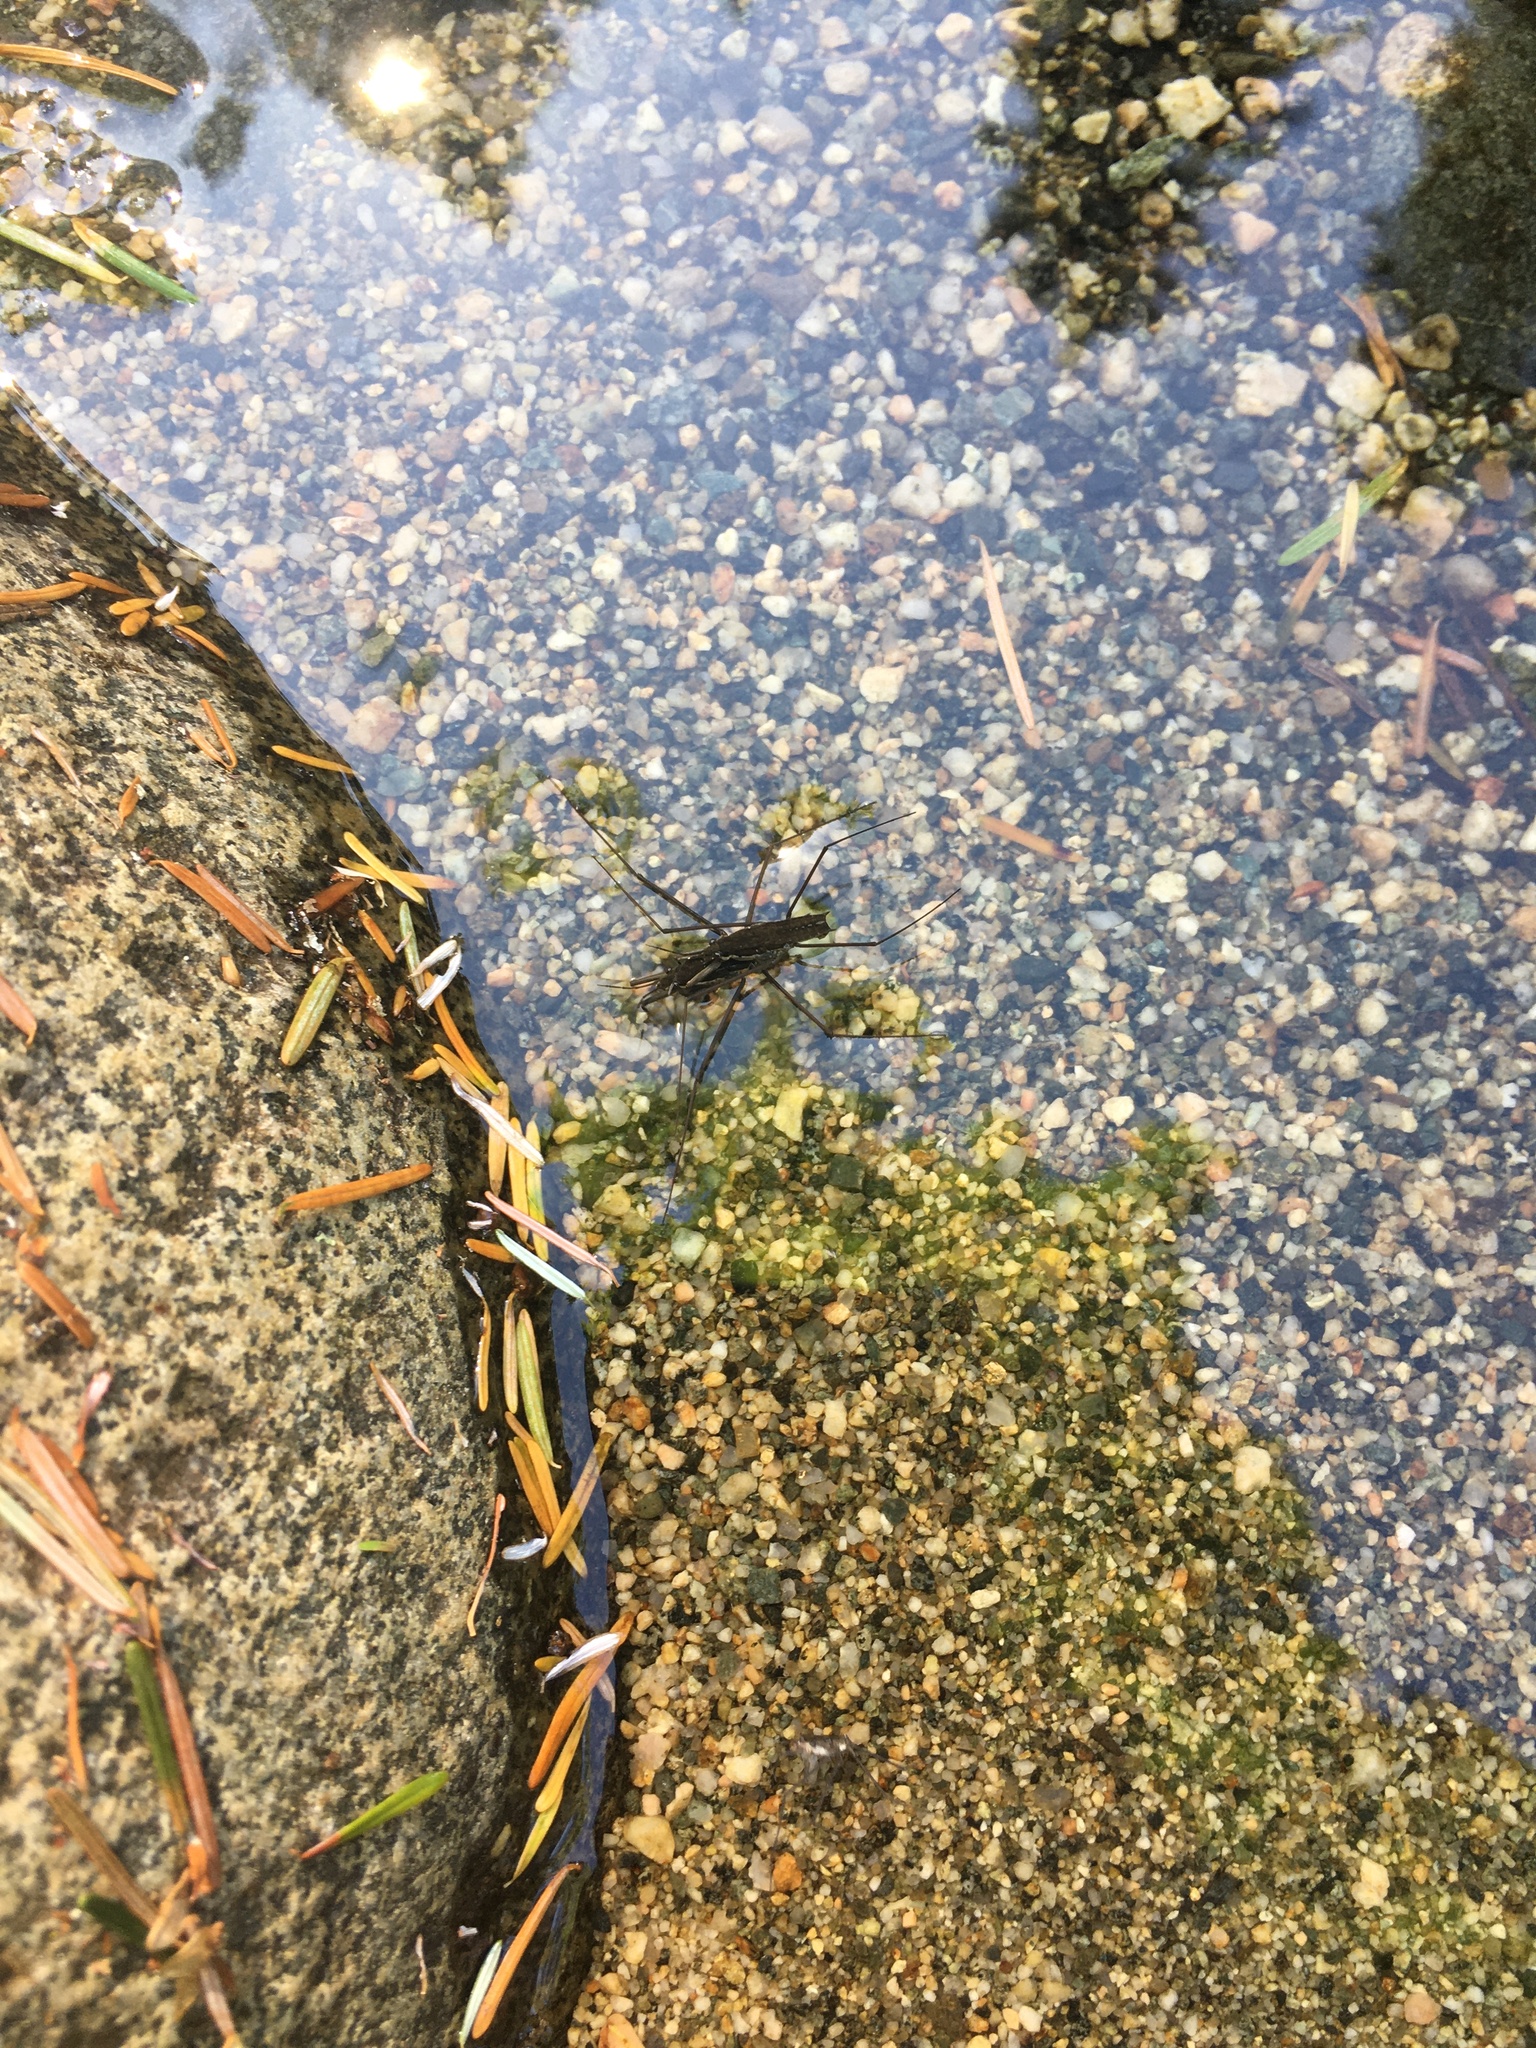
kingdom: Animalia
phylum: Arthropoda
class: Insecta
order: Hemiptera
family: Gerridae
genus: Aquarius
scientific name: Aquarius remigis
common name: Common water strider
